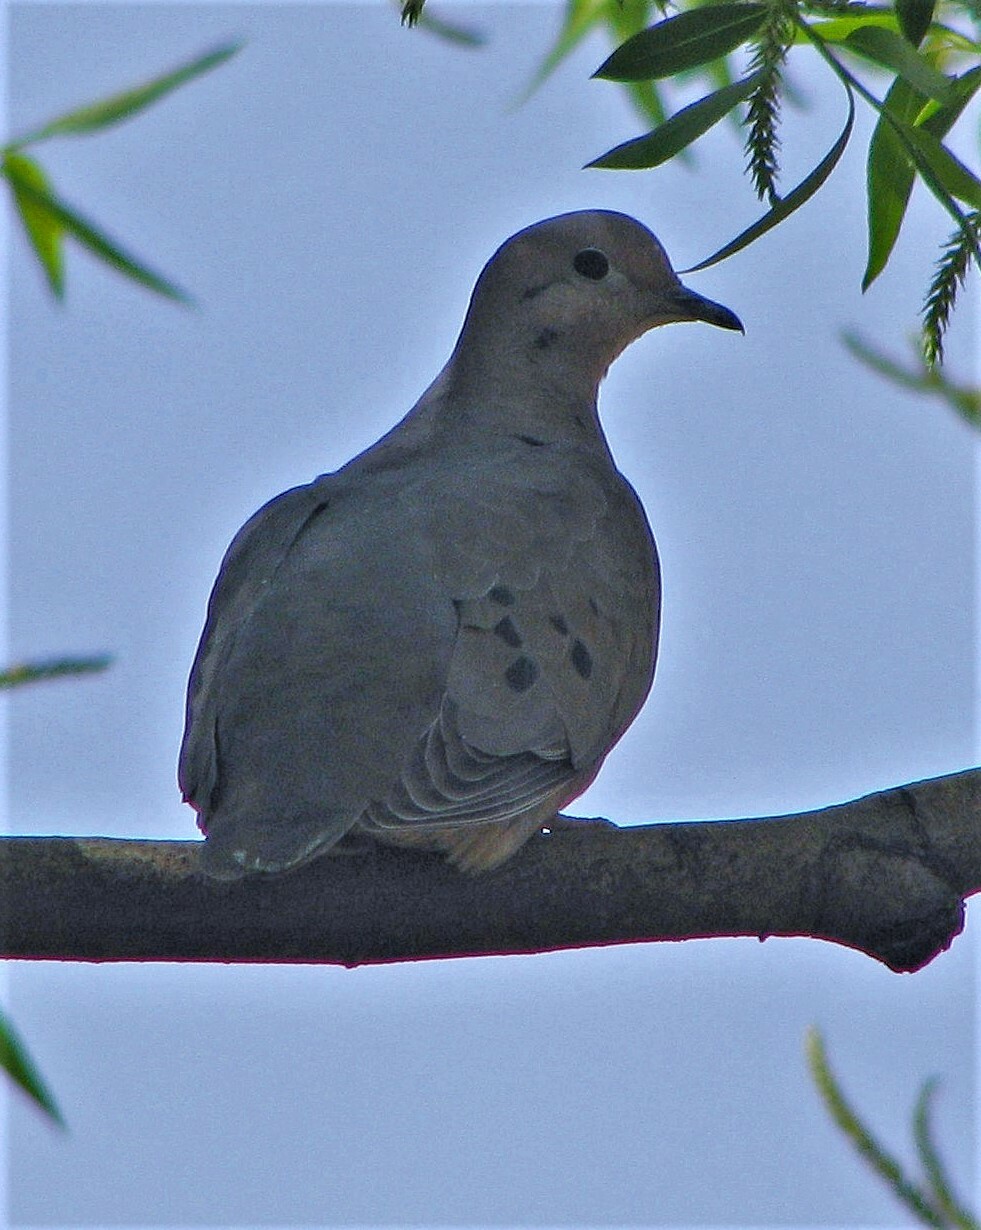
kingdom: Animalia
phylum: Chordata
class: Aves
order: Columbiformes
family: Columbidae
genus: Zenaida
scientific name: Zenaida auriculata
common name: Eared dove
